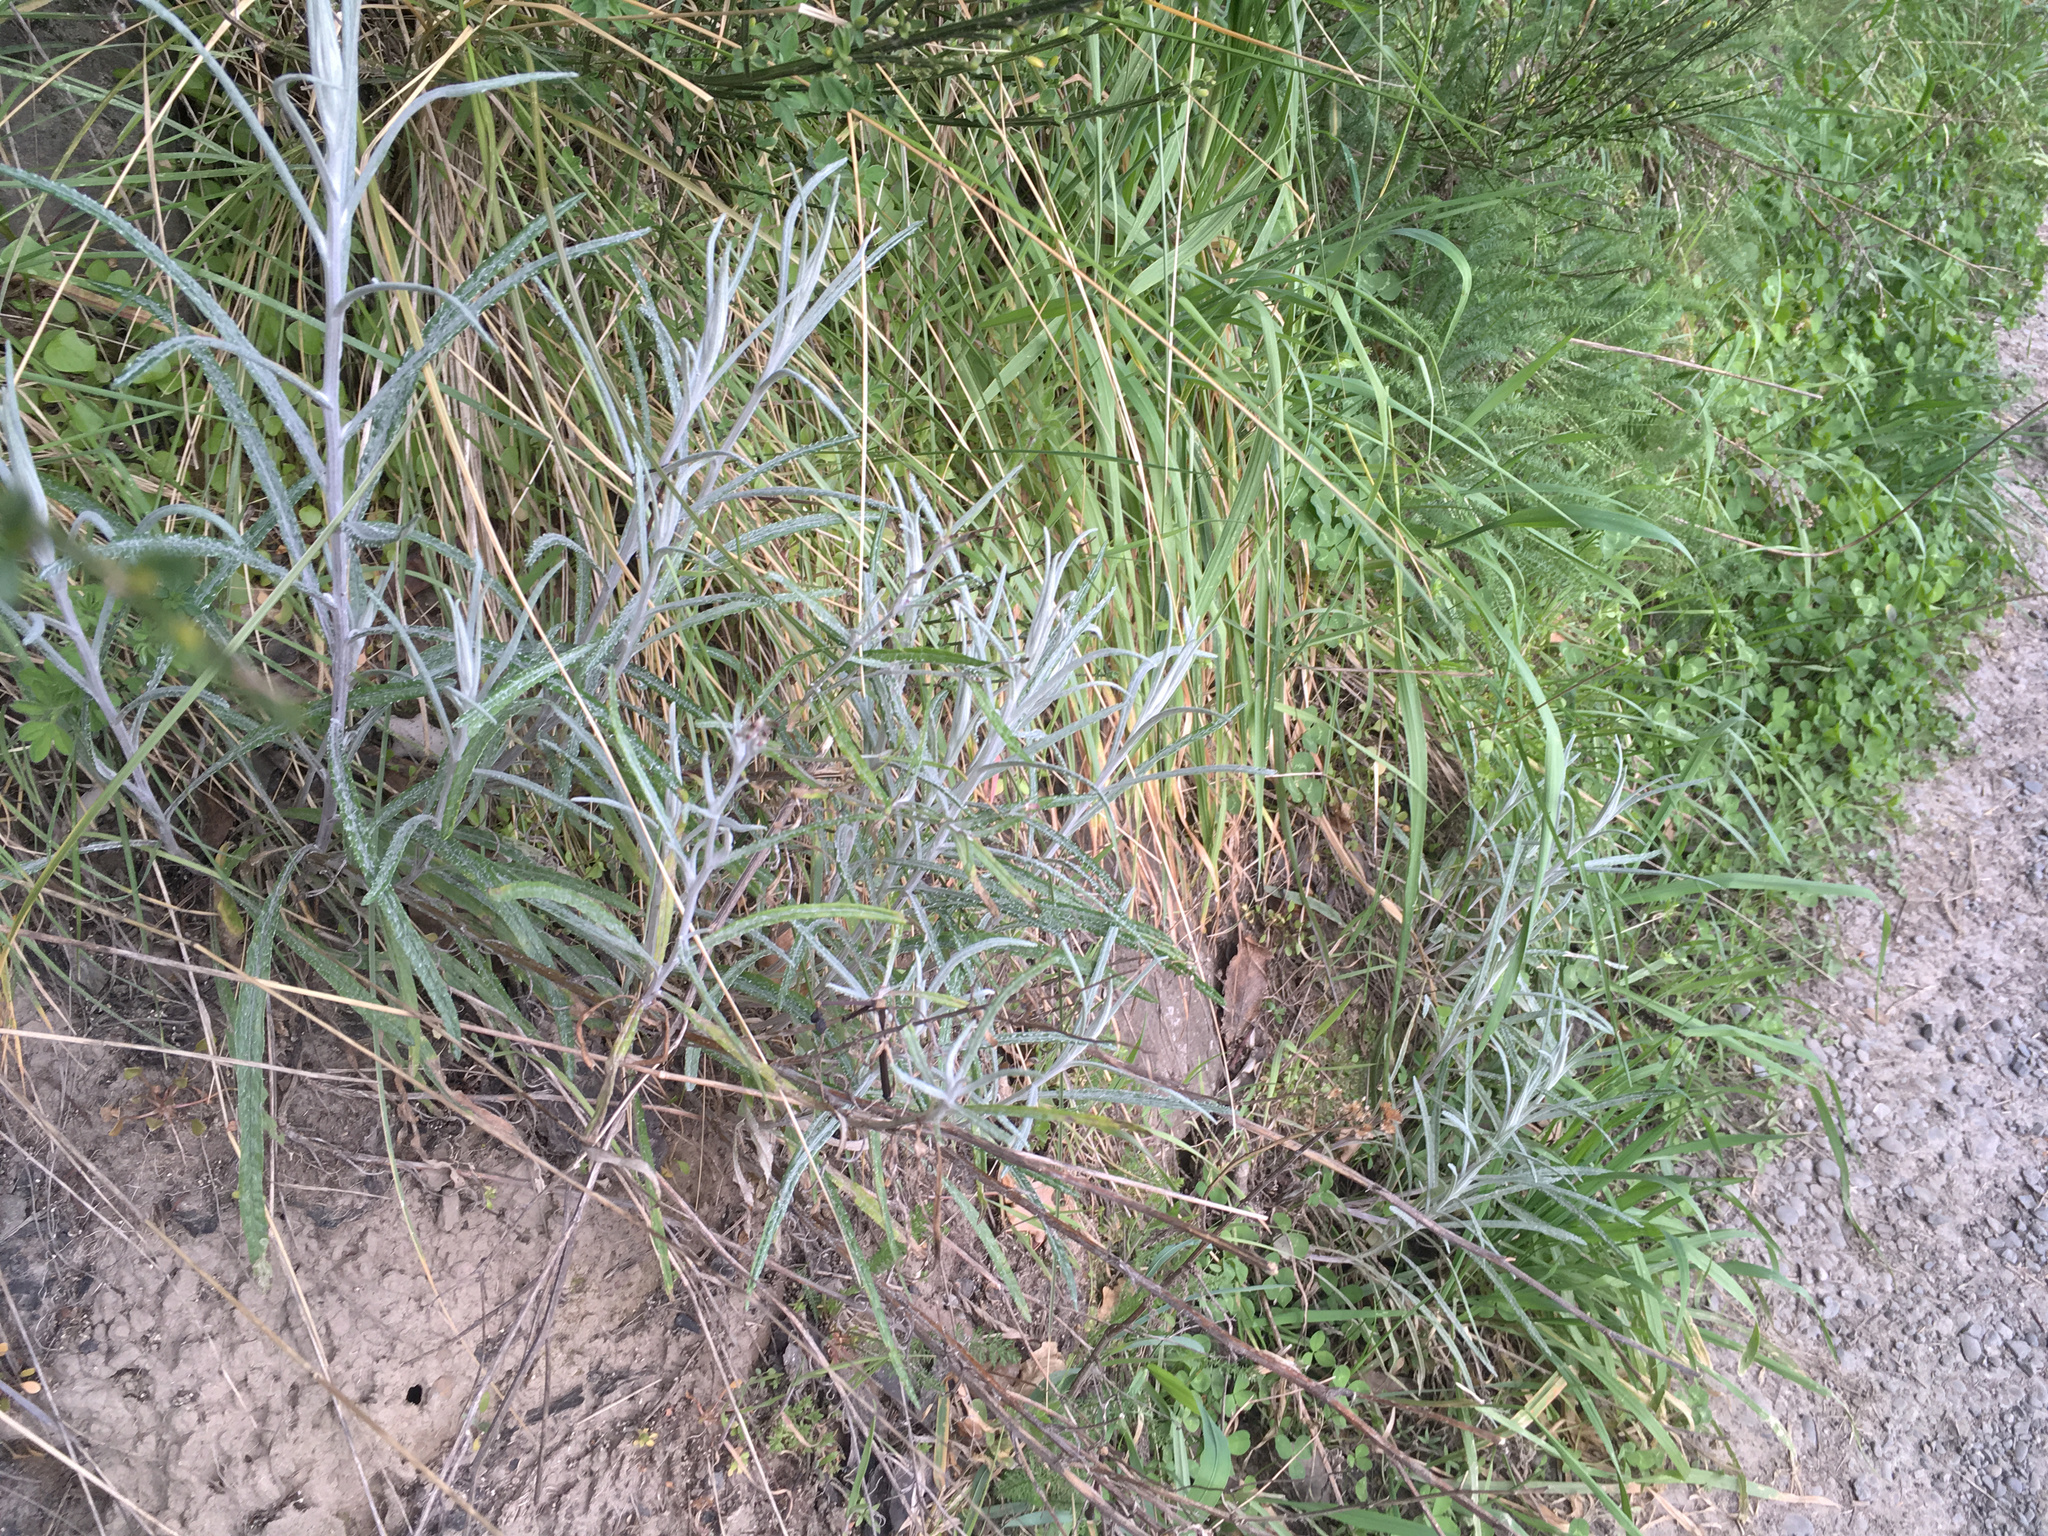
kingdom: Plantae
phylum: Tracheophyta
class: Magnoliopsida
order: Asterales
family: Asteraceae
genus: Senecio
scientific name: Senecio quadridentatus
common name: Cotton fireweed
